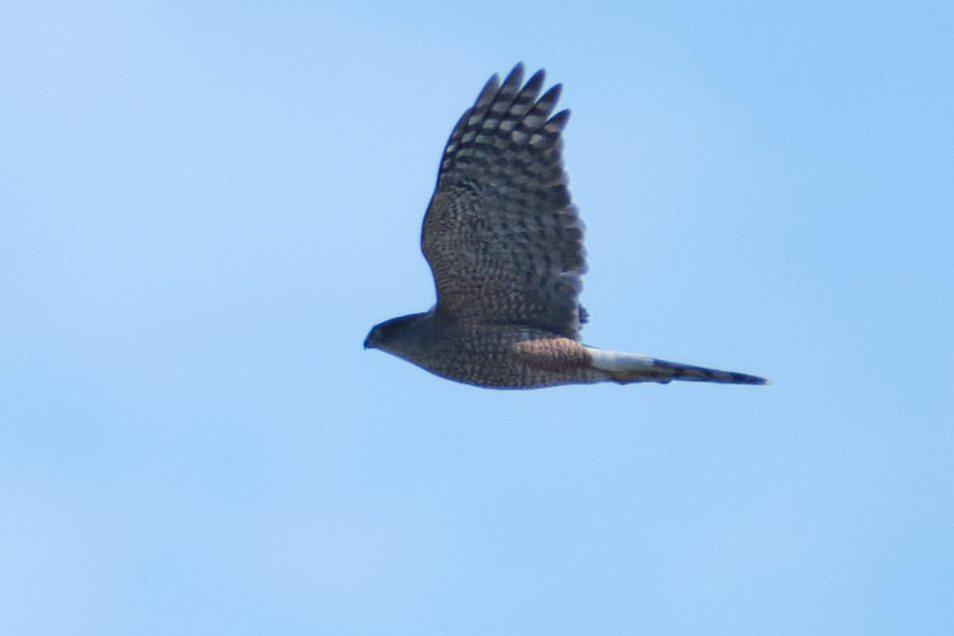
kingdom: Animalia
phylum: Chordata
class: Aves
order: Accipitriformes
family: Accipitridae
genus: Accipiter
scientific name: Accipiter cooperii
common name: Cooper's hawk
